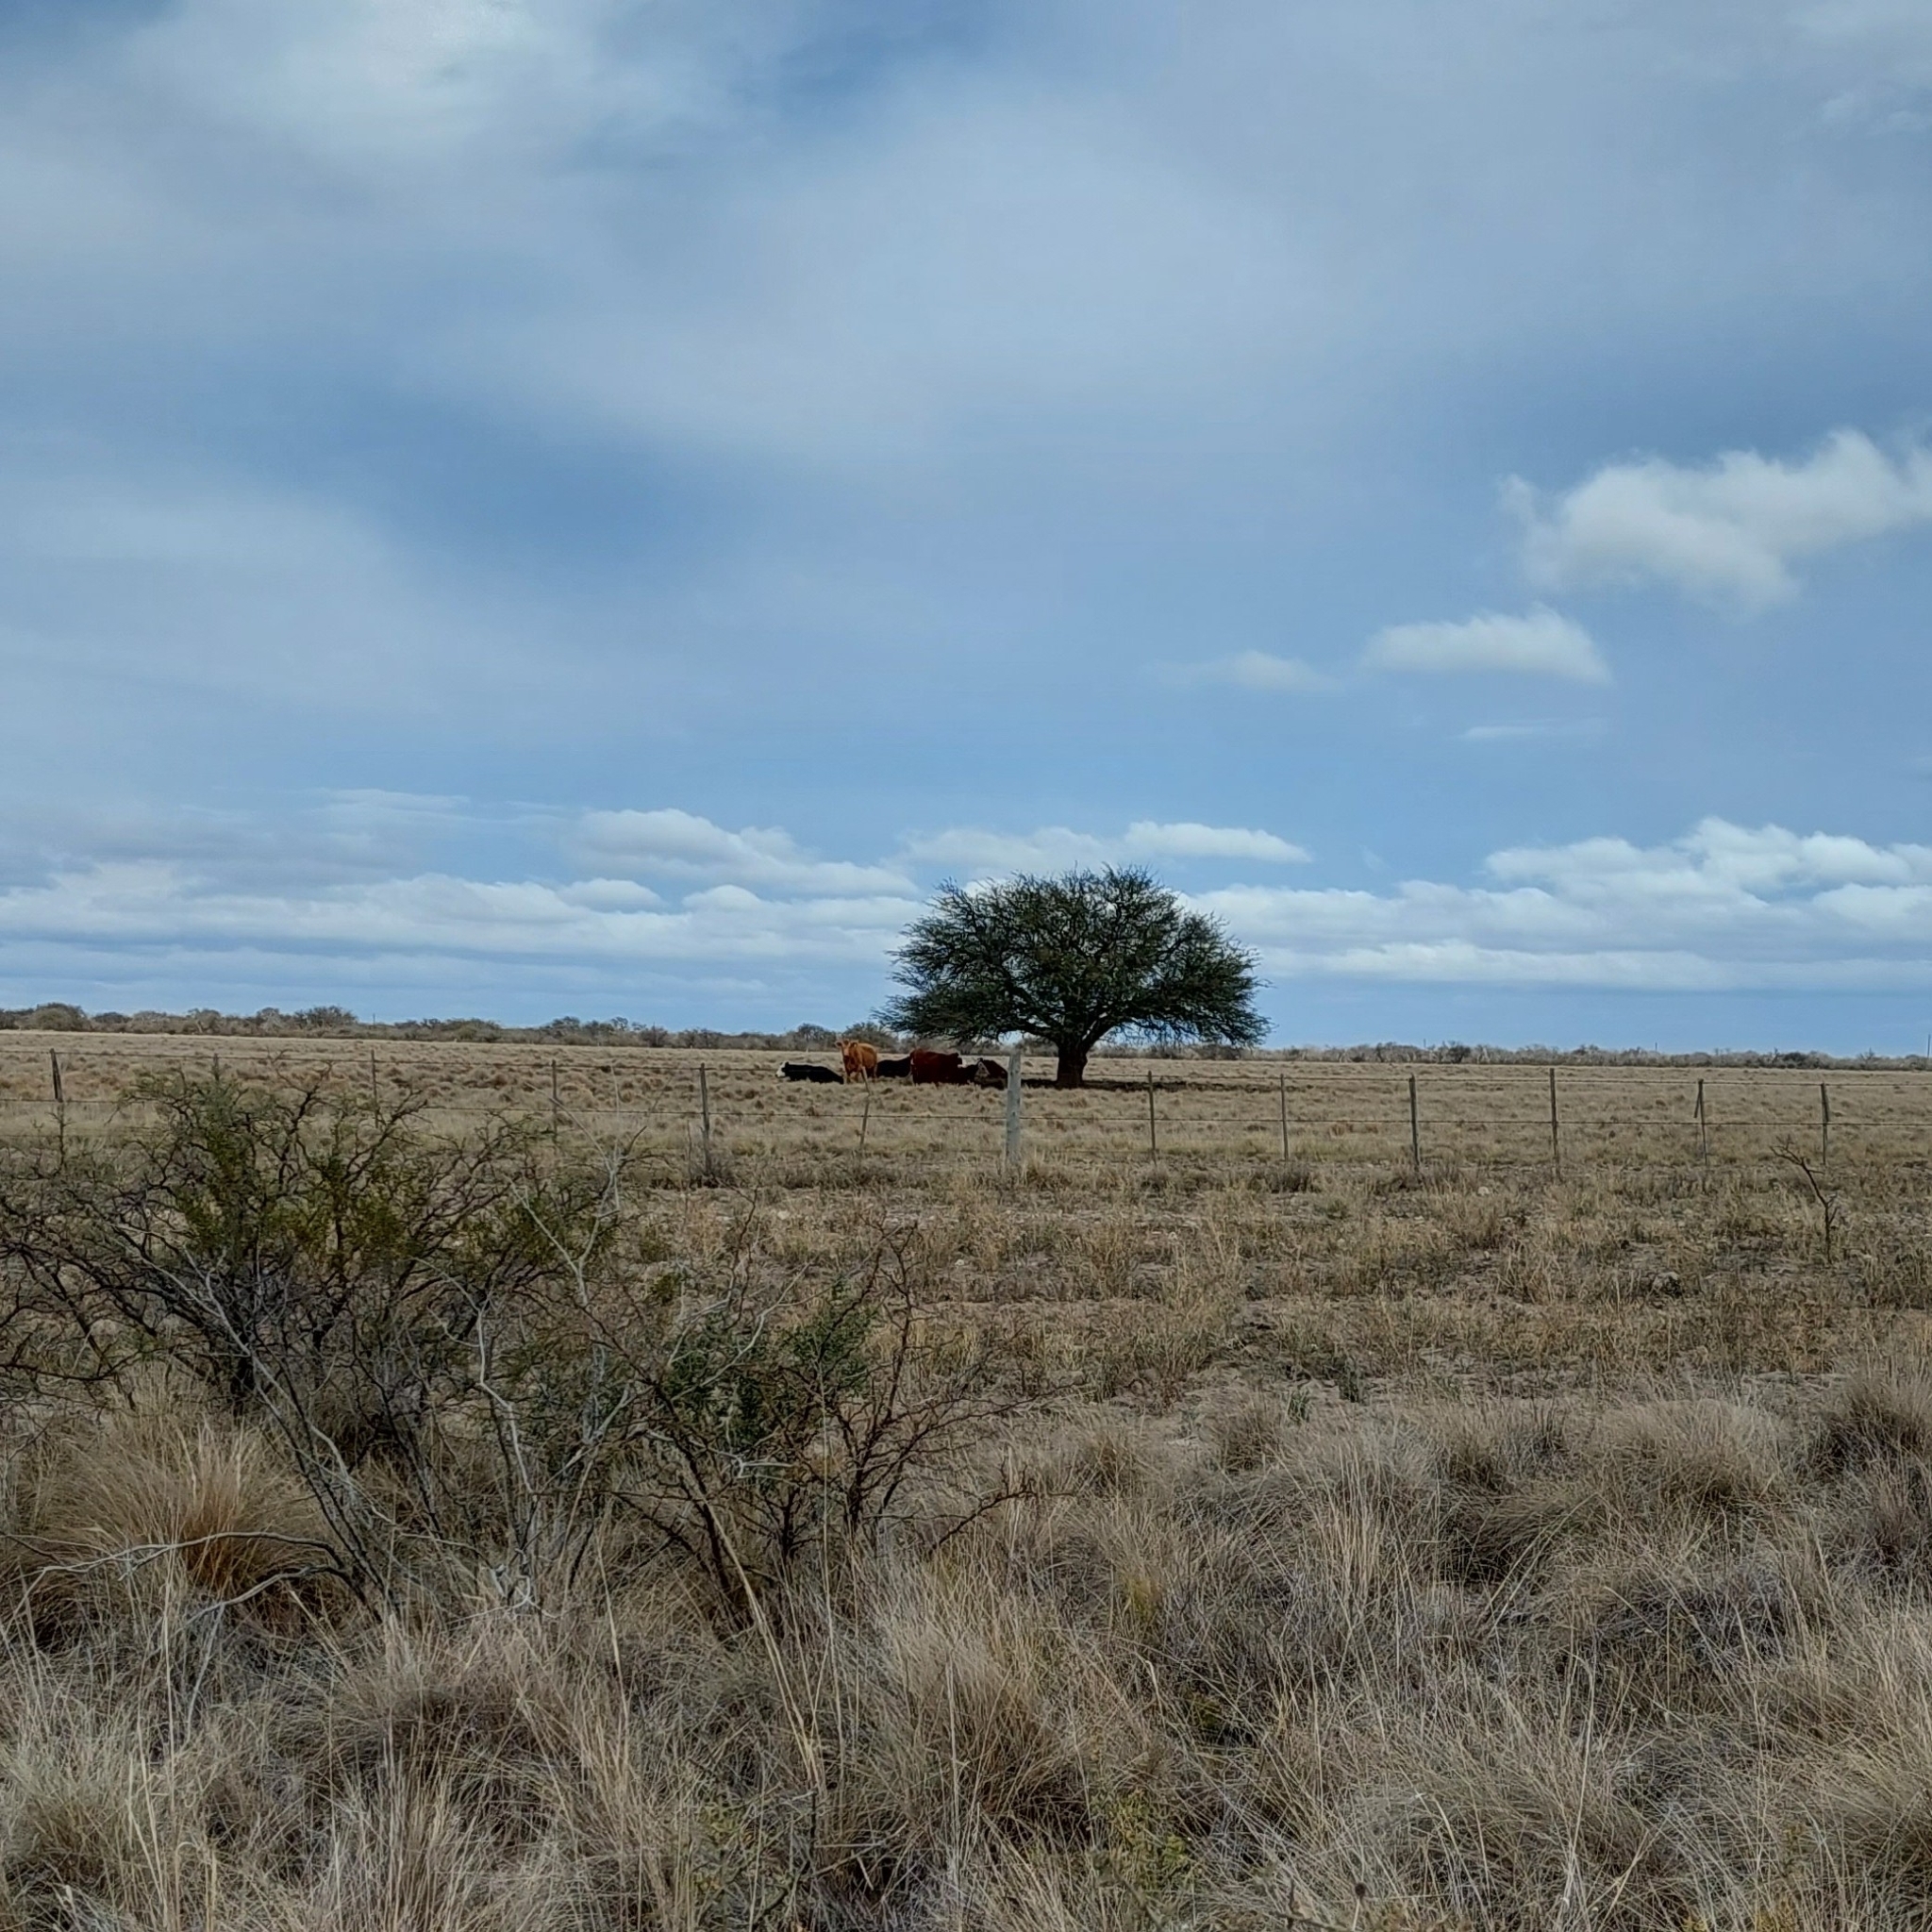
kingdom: Plantae
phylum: Tracheophyta
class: Magnoliopsida
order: Fabales
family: Fabaceae
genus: Prosopis
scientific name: Prosopis caldenia
